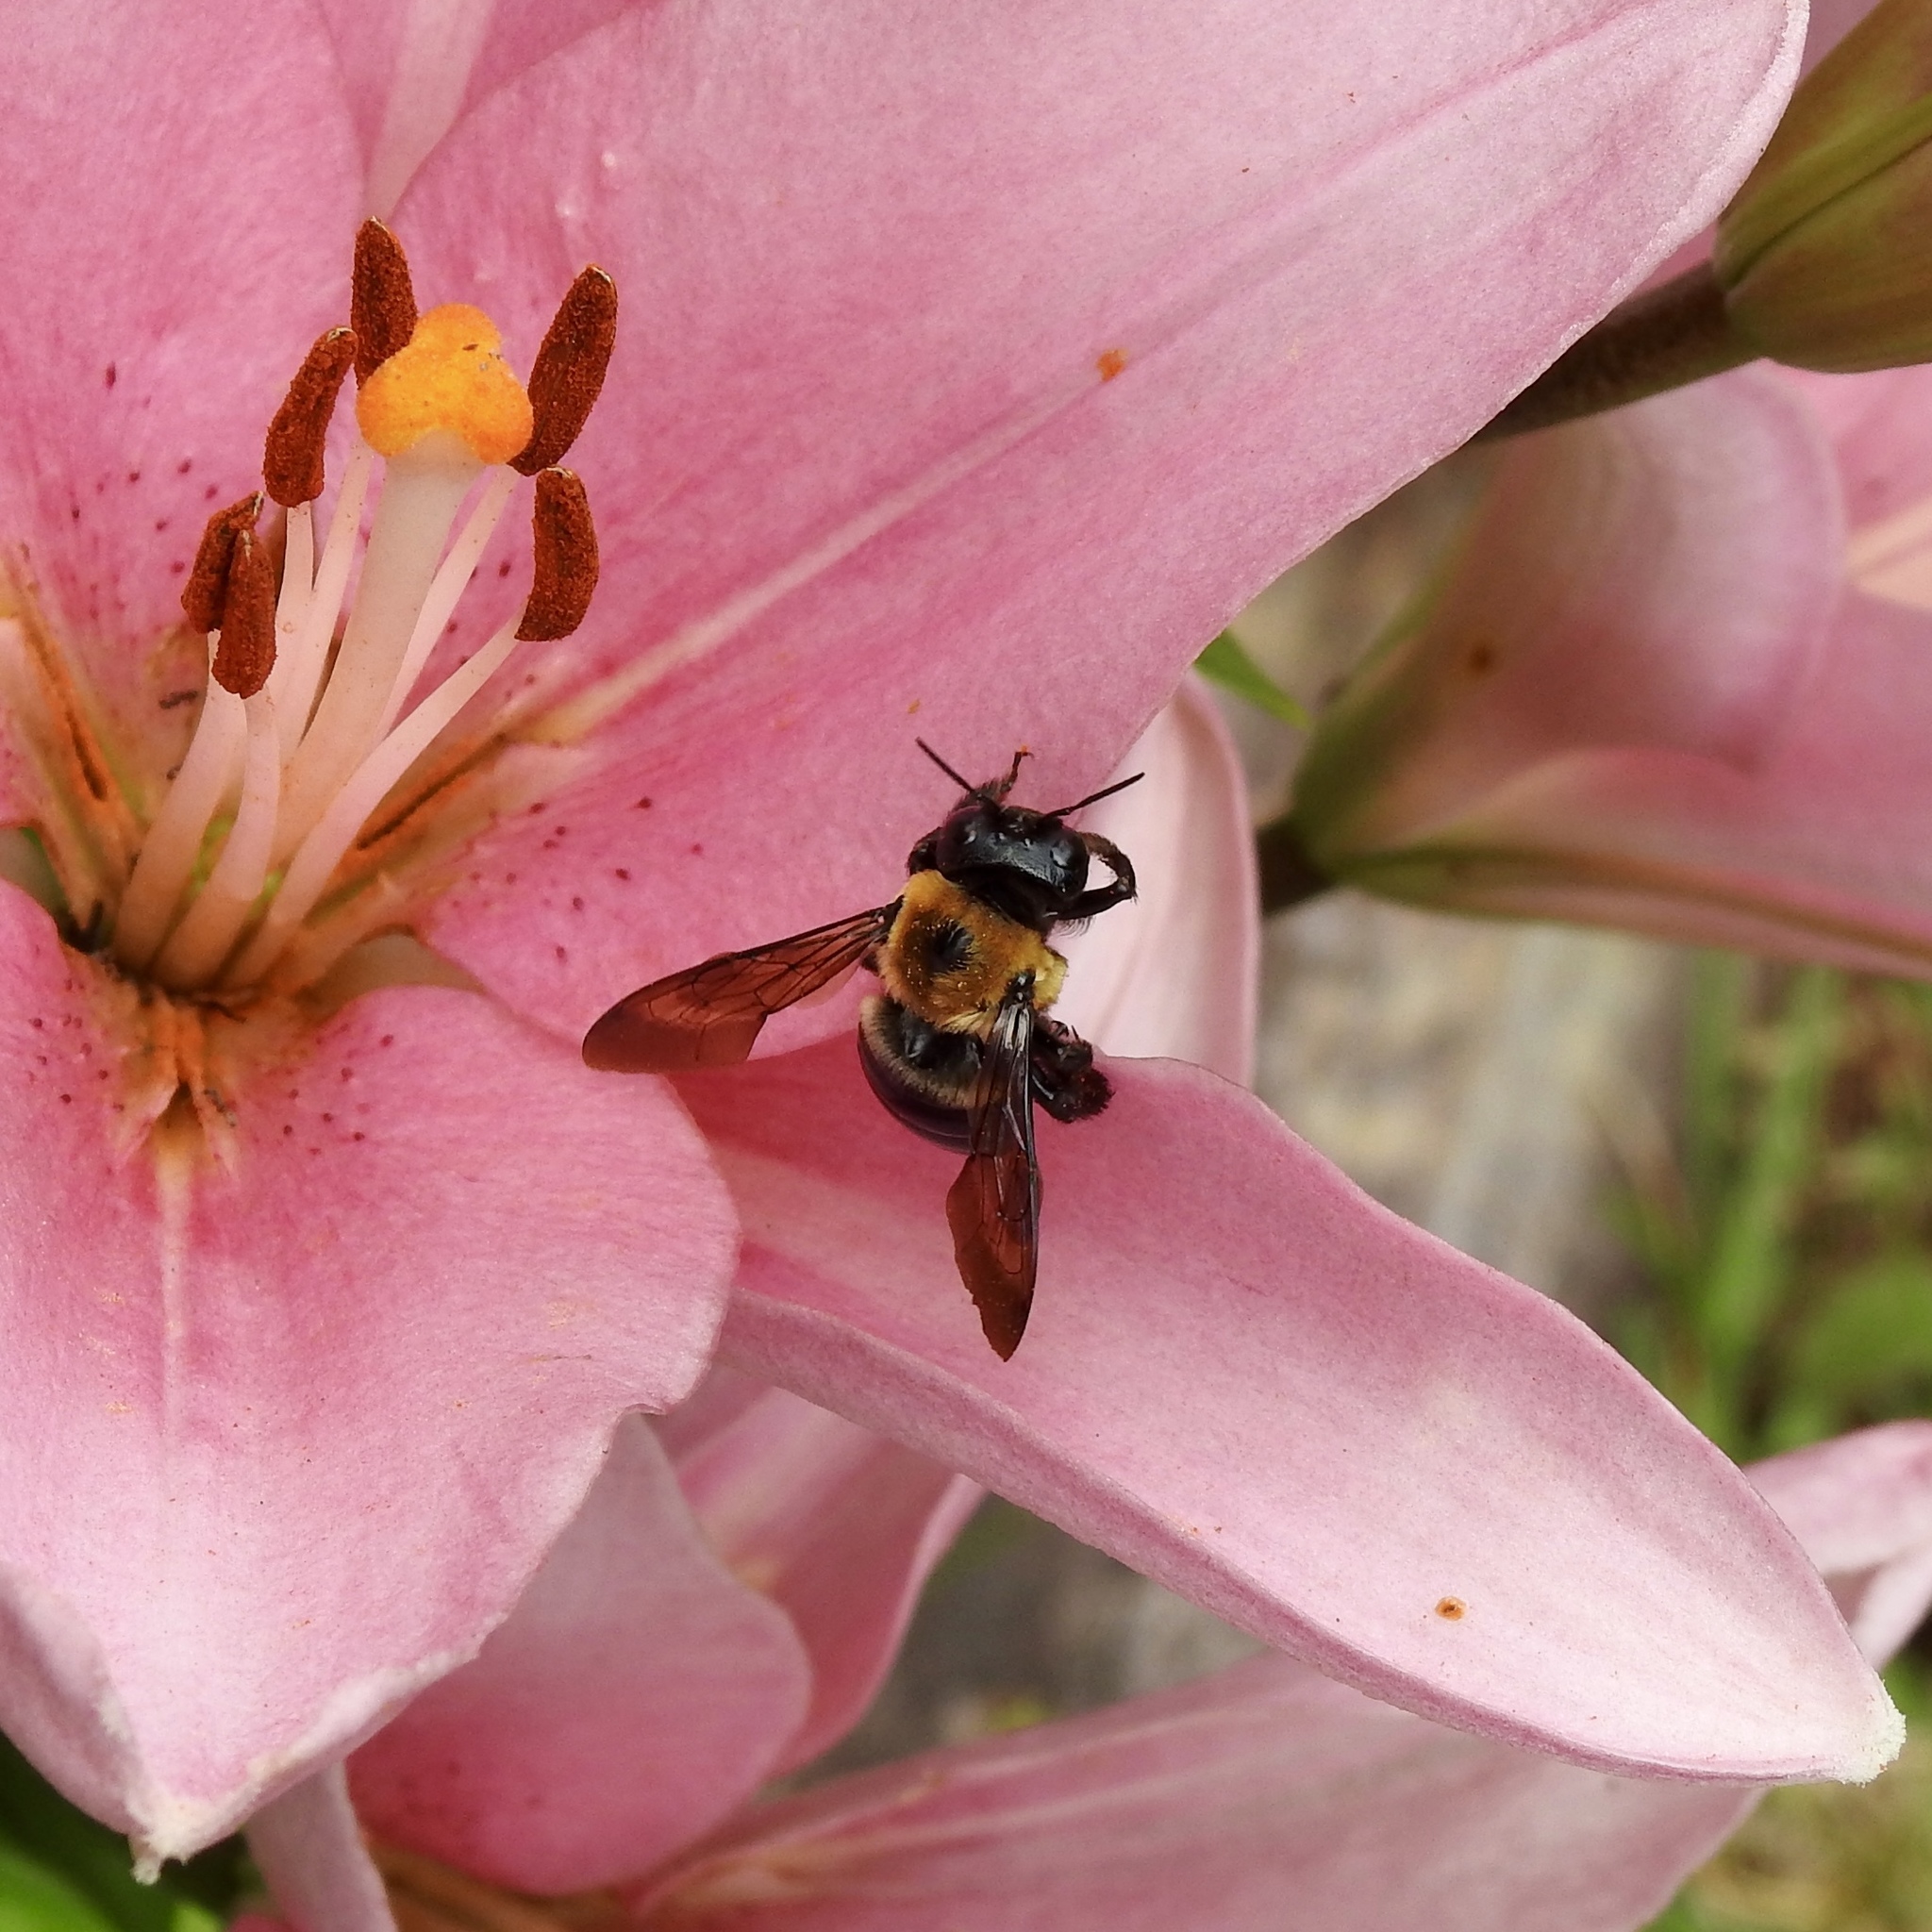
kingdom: Animalia
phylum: Arthropoda
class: Insecta
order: Hymenoptera
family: Apidae
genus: Xylocopa
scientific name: Xylocopa virginica
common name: Carpenter bee
